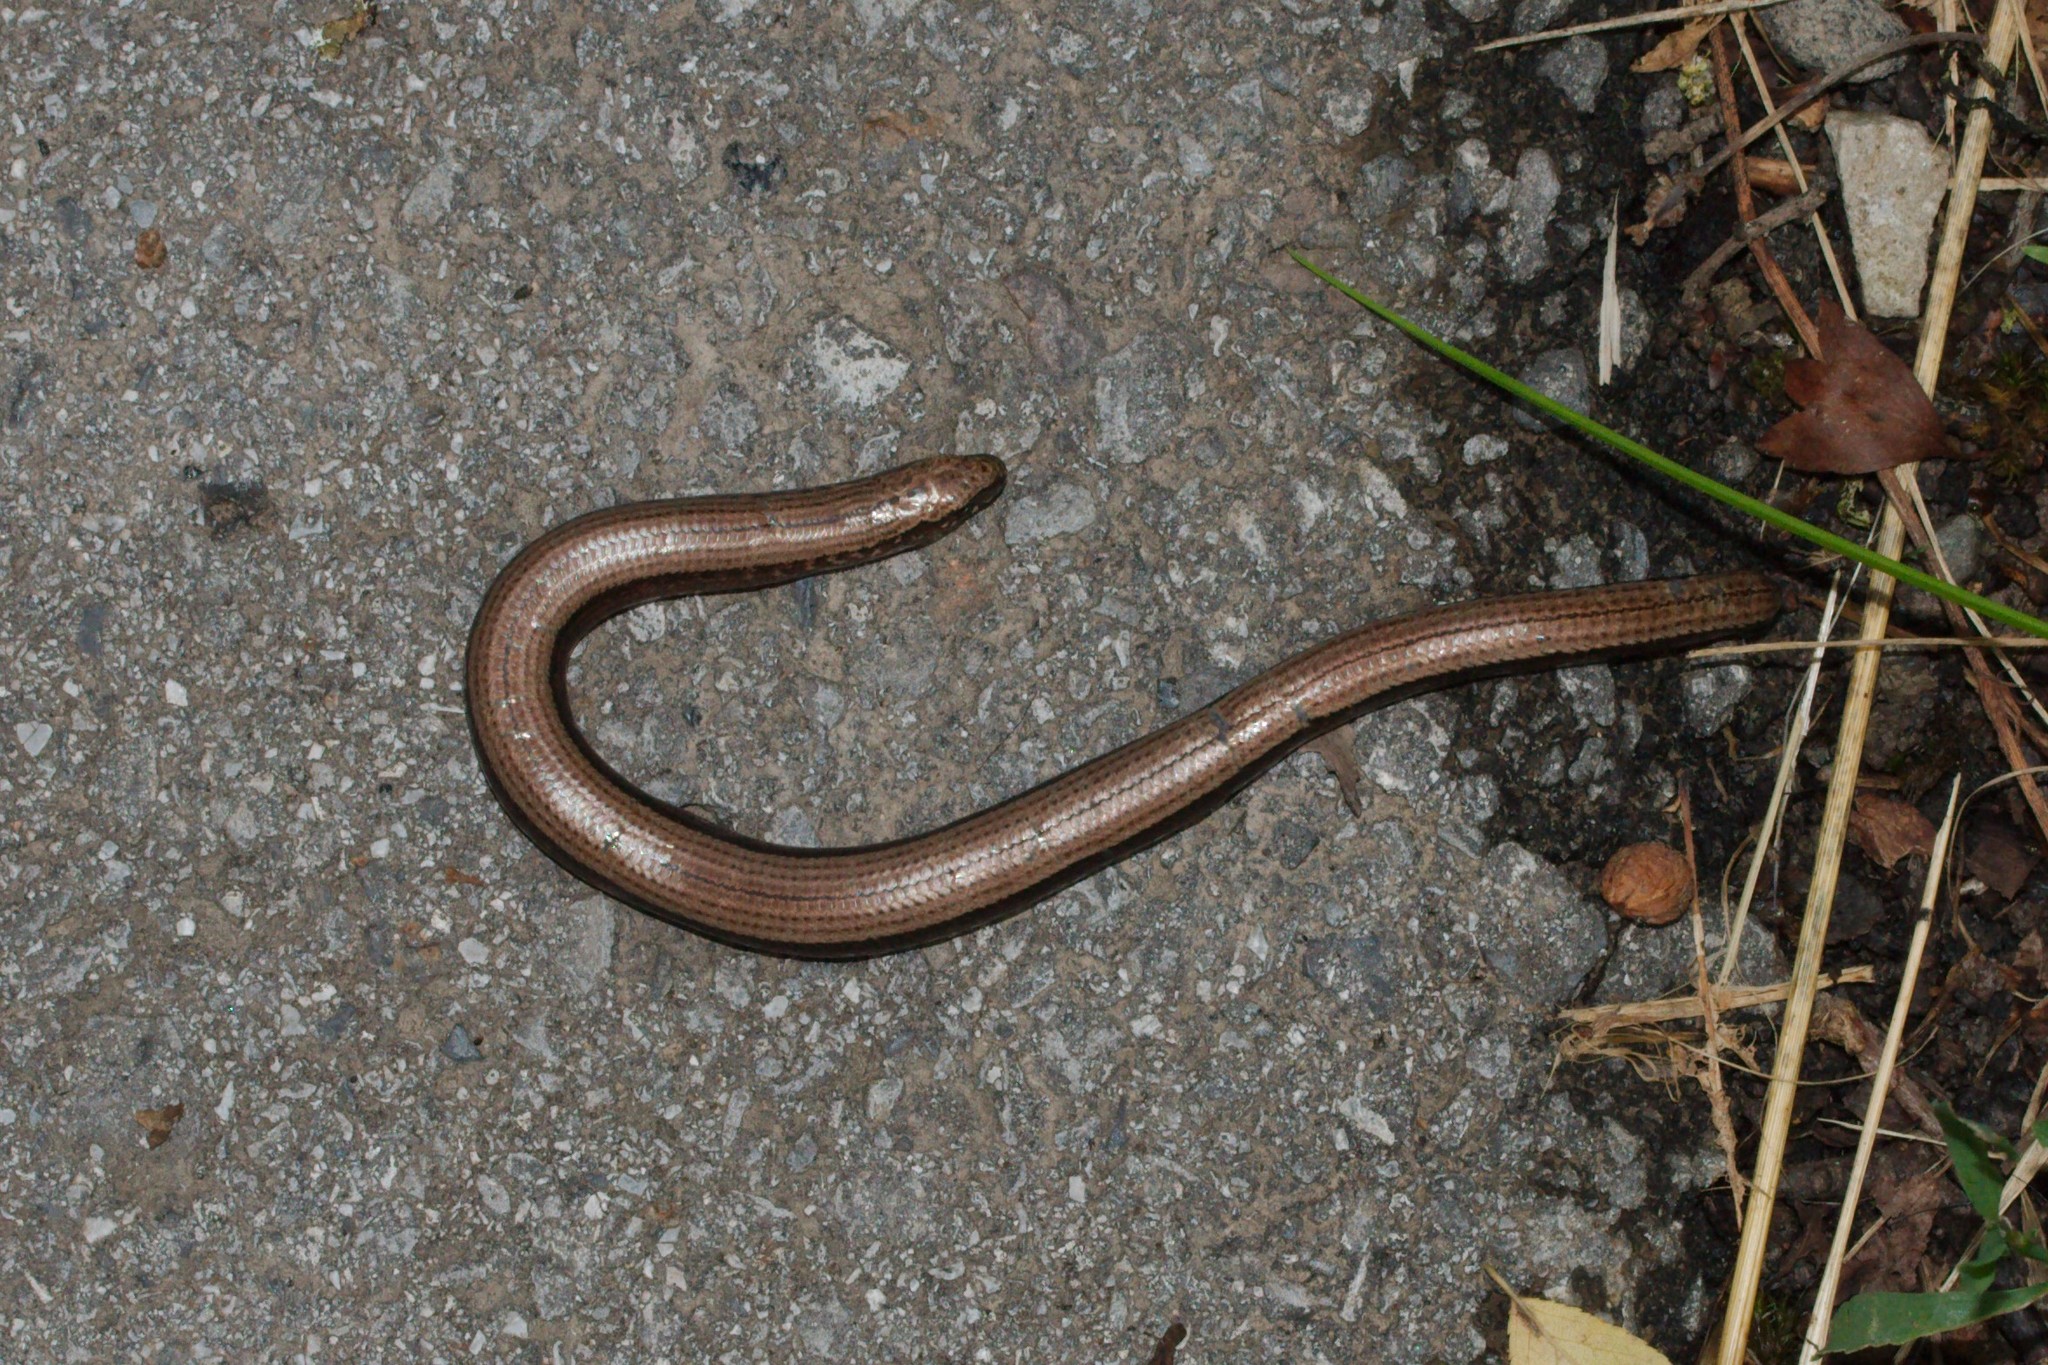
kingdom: Animalia
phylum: Chordata
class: Squamata
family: Anguidae
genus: Anguis
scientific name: Anguis fragilis
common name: Slow worm
